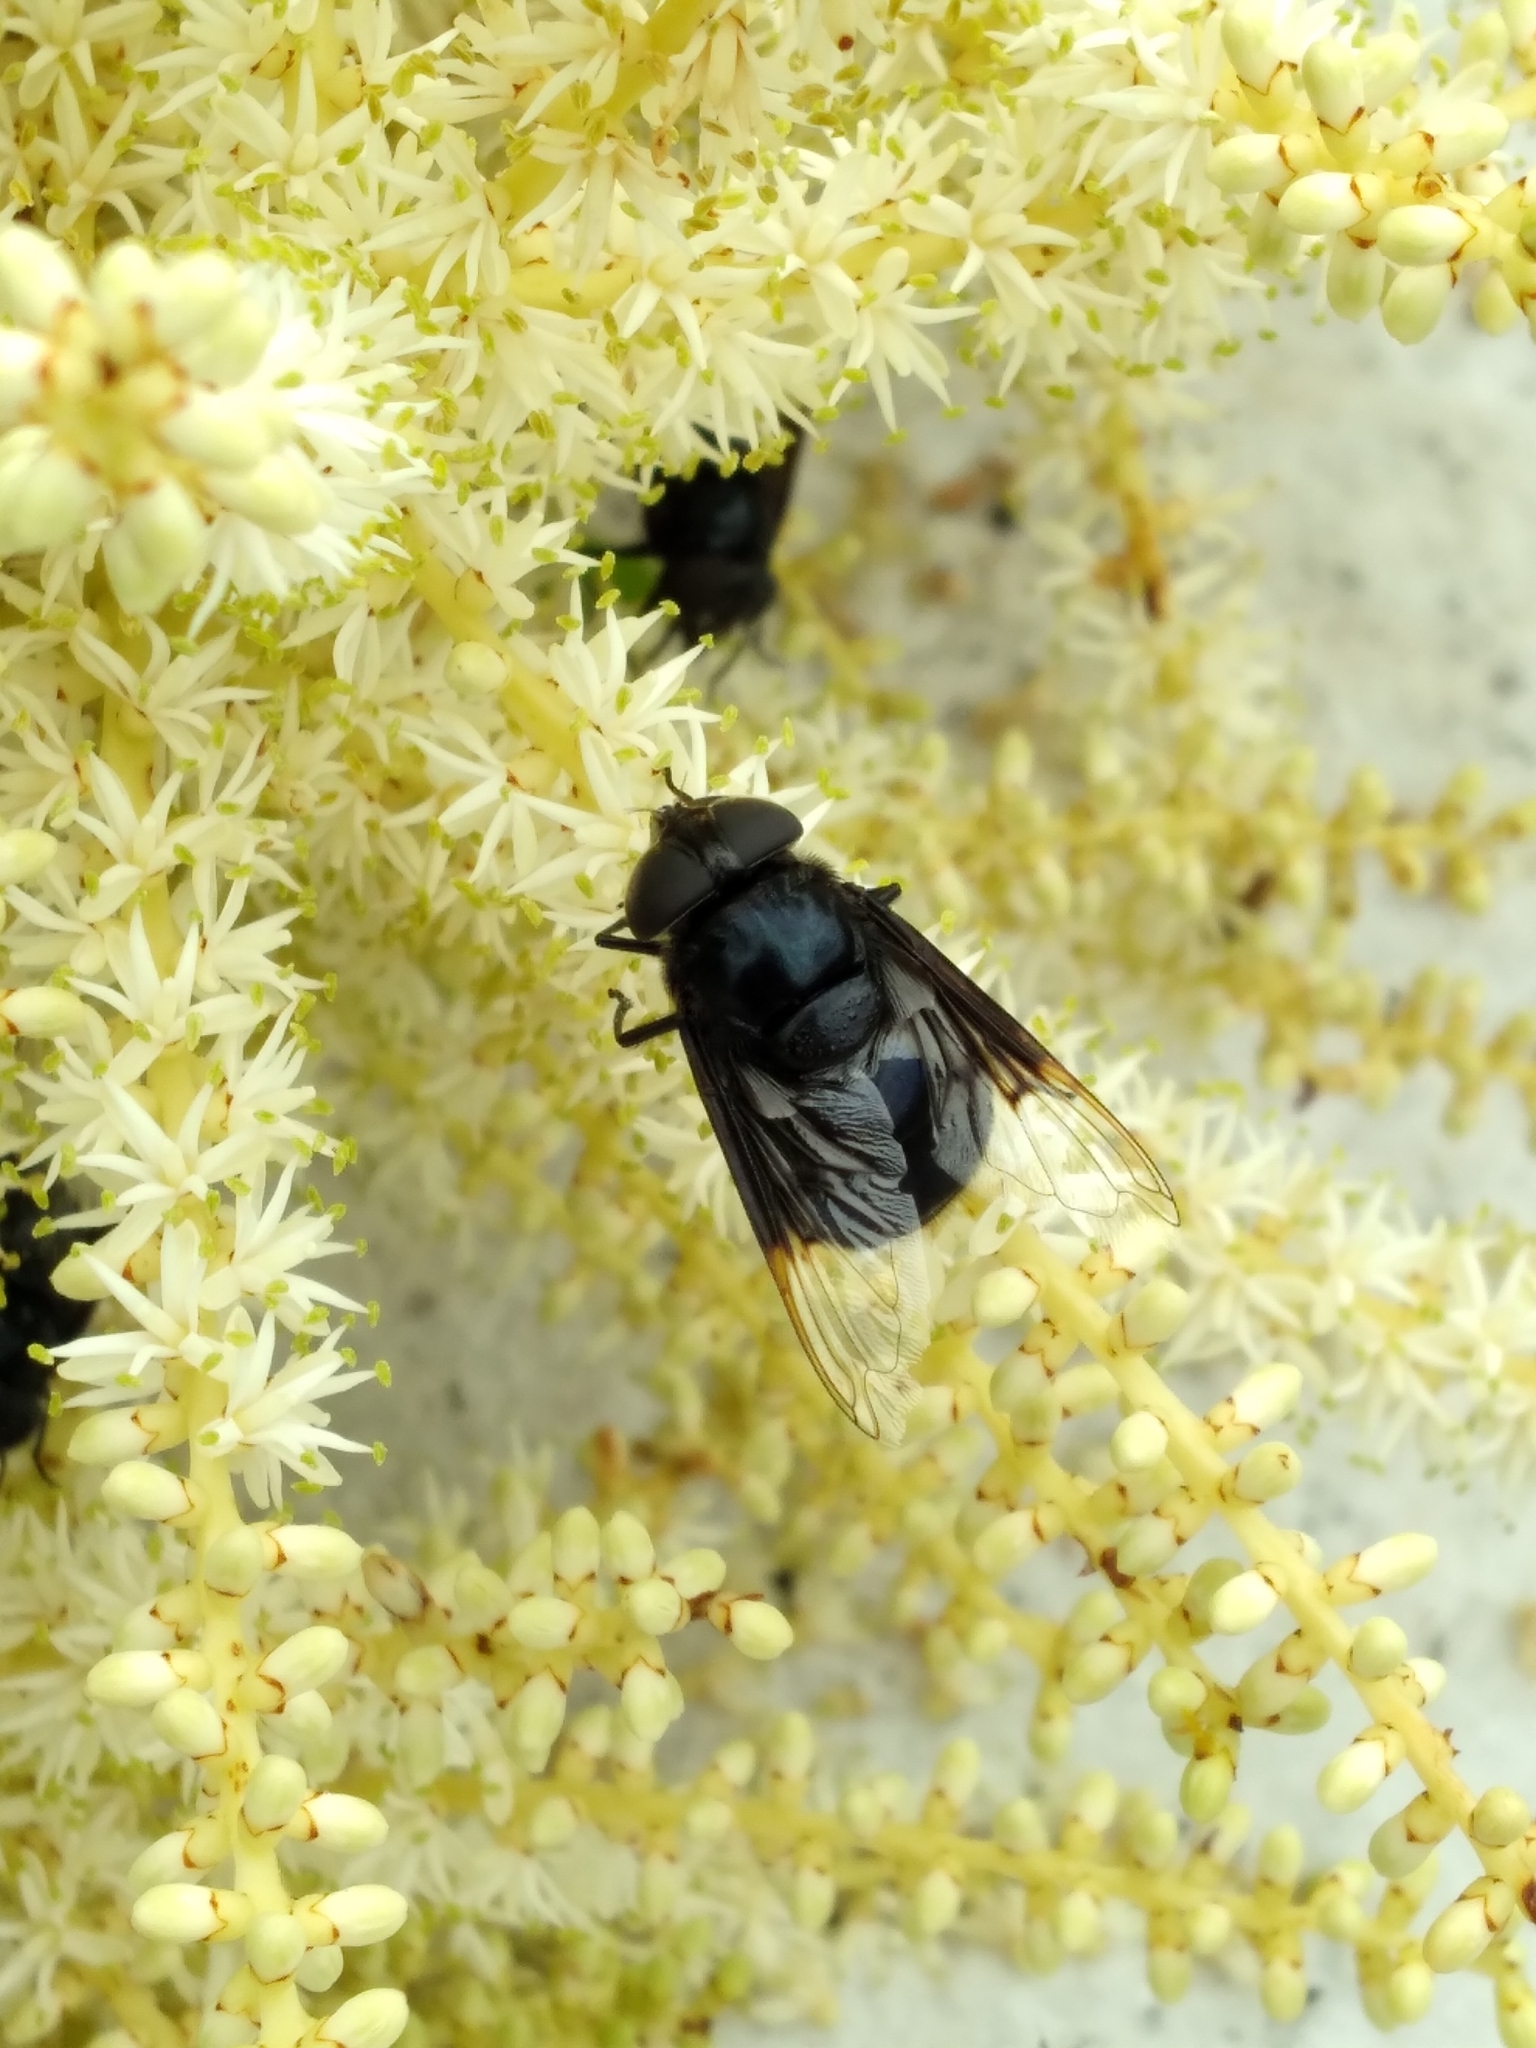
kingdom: Animalia
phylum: Arthropoda
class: Insecta
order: Diptera
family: Syrphidae
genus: Copestylum
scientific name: Copestylum mexicanum
